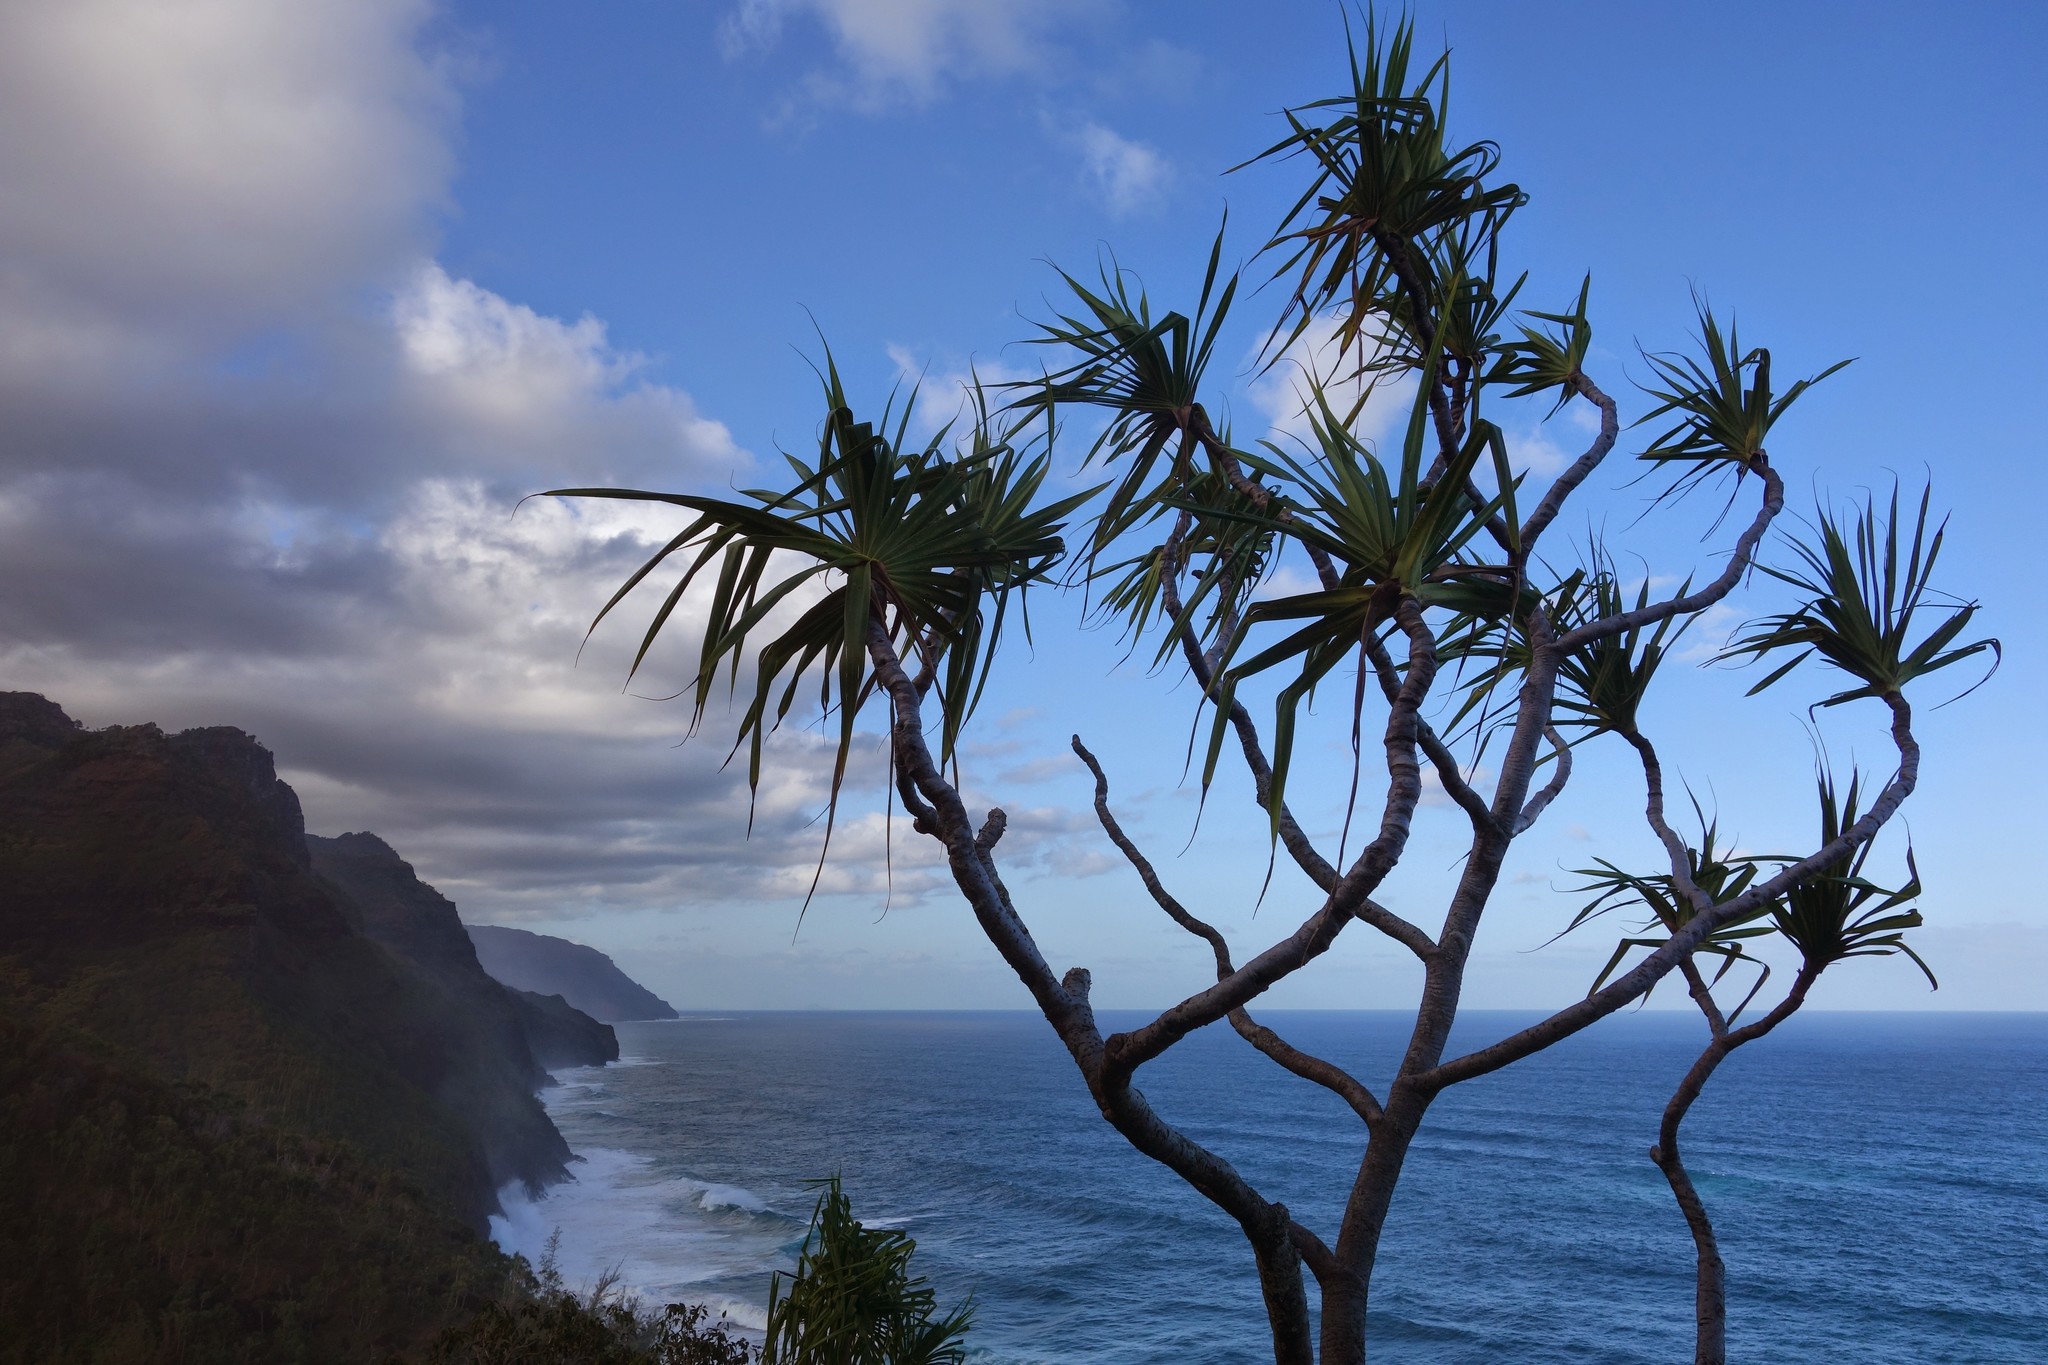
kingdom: Plantae
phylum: Tracheophyta
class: Liliopsida
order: Pandanales
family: Pandanaceae
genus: Pandanus
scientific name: Pandanus tectorius
